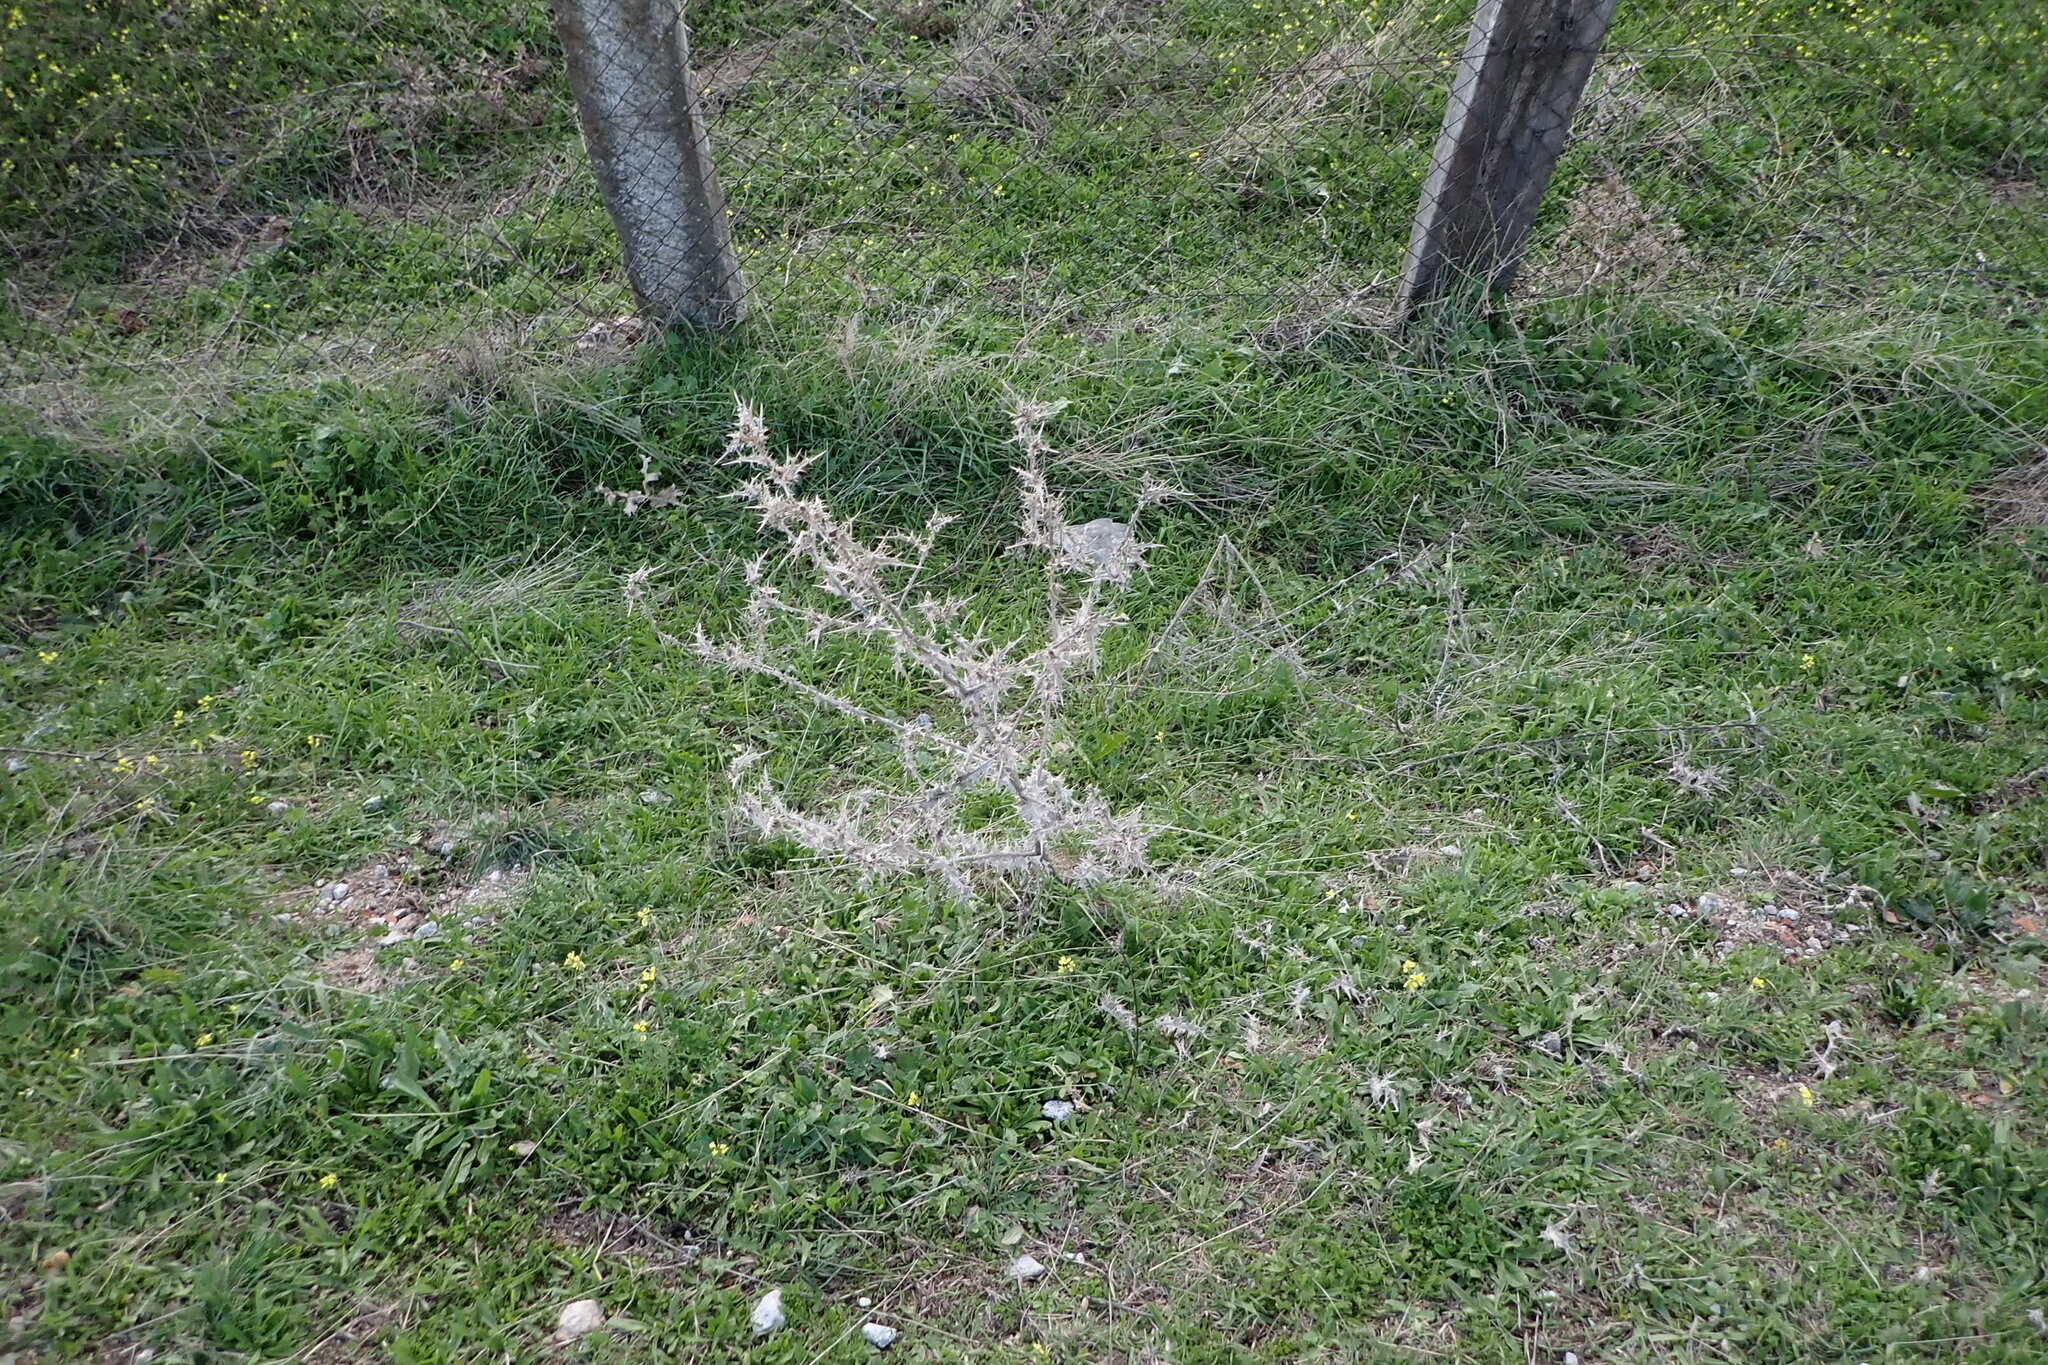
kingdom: Plantae
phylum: Tracheophyta
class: Magnoliopsida
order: Asterales
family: Asteraceae
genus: Scolymus
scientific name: Scolymus hispanicus
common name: Golden thistle
